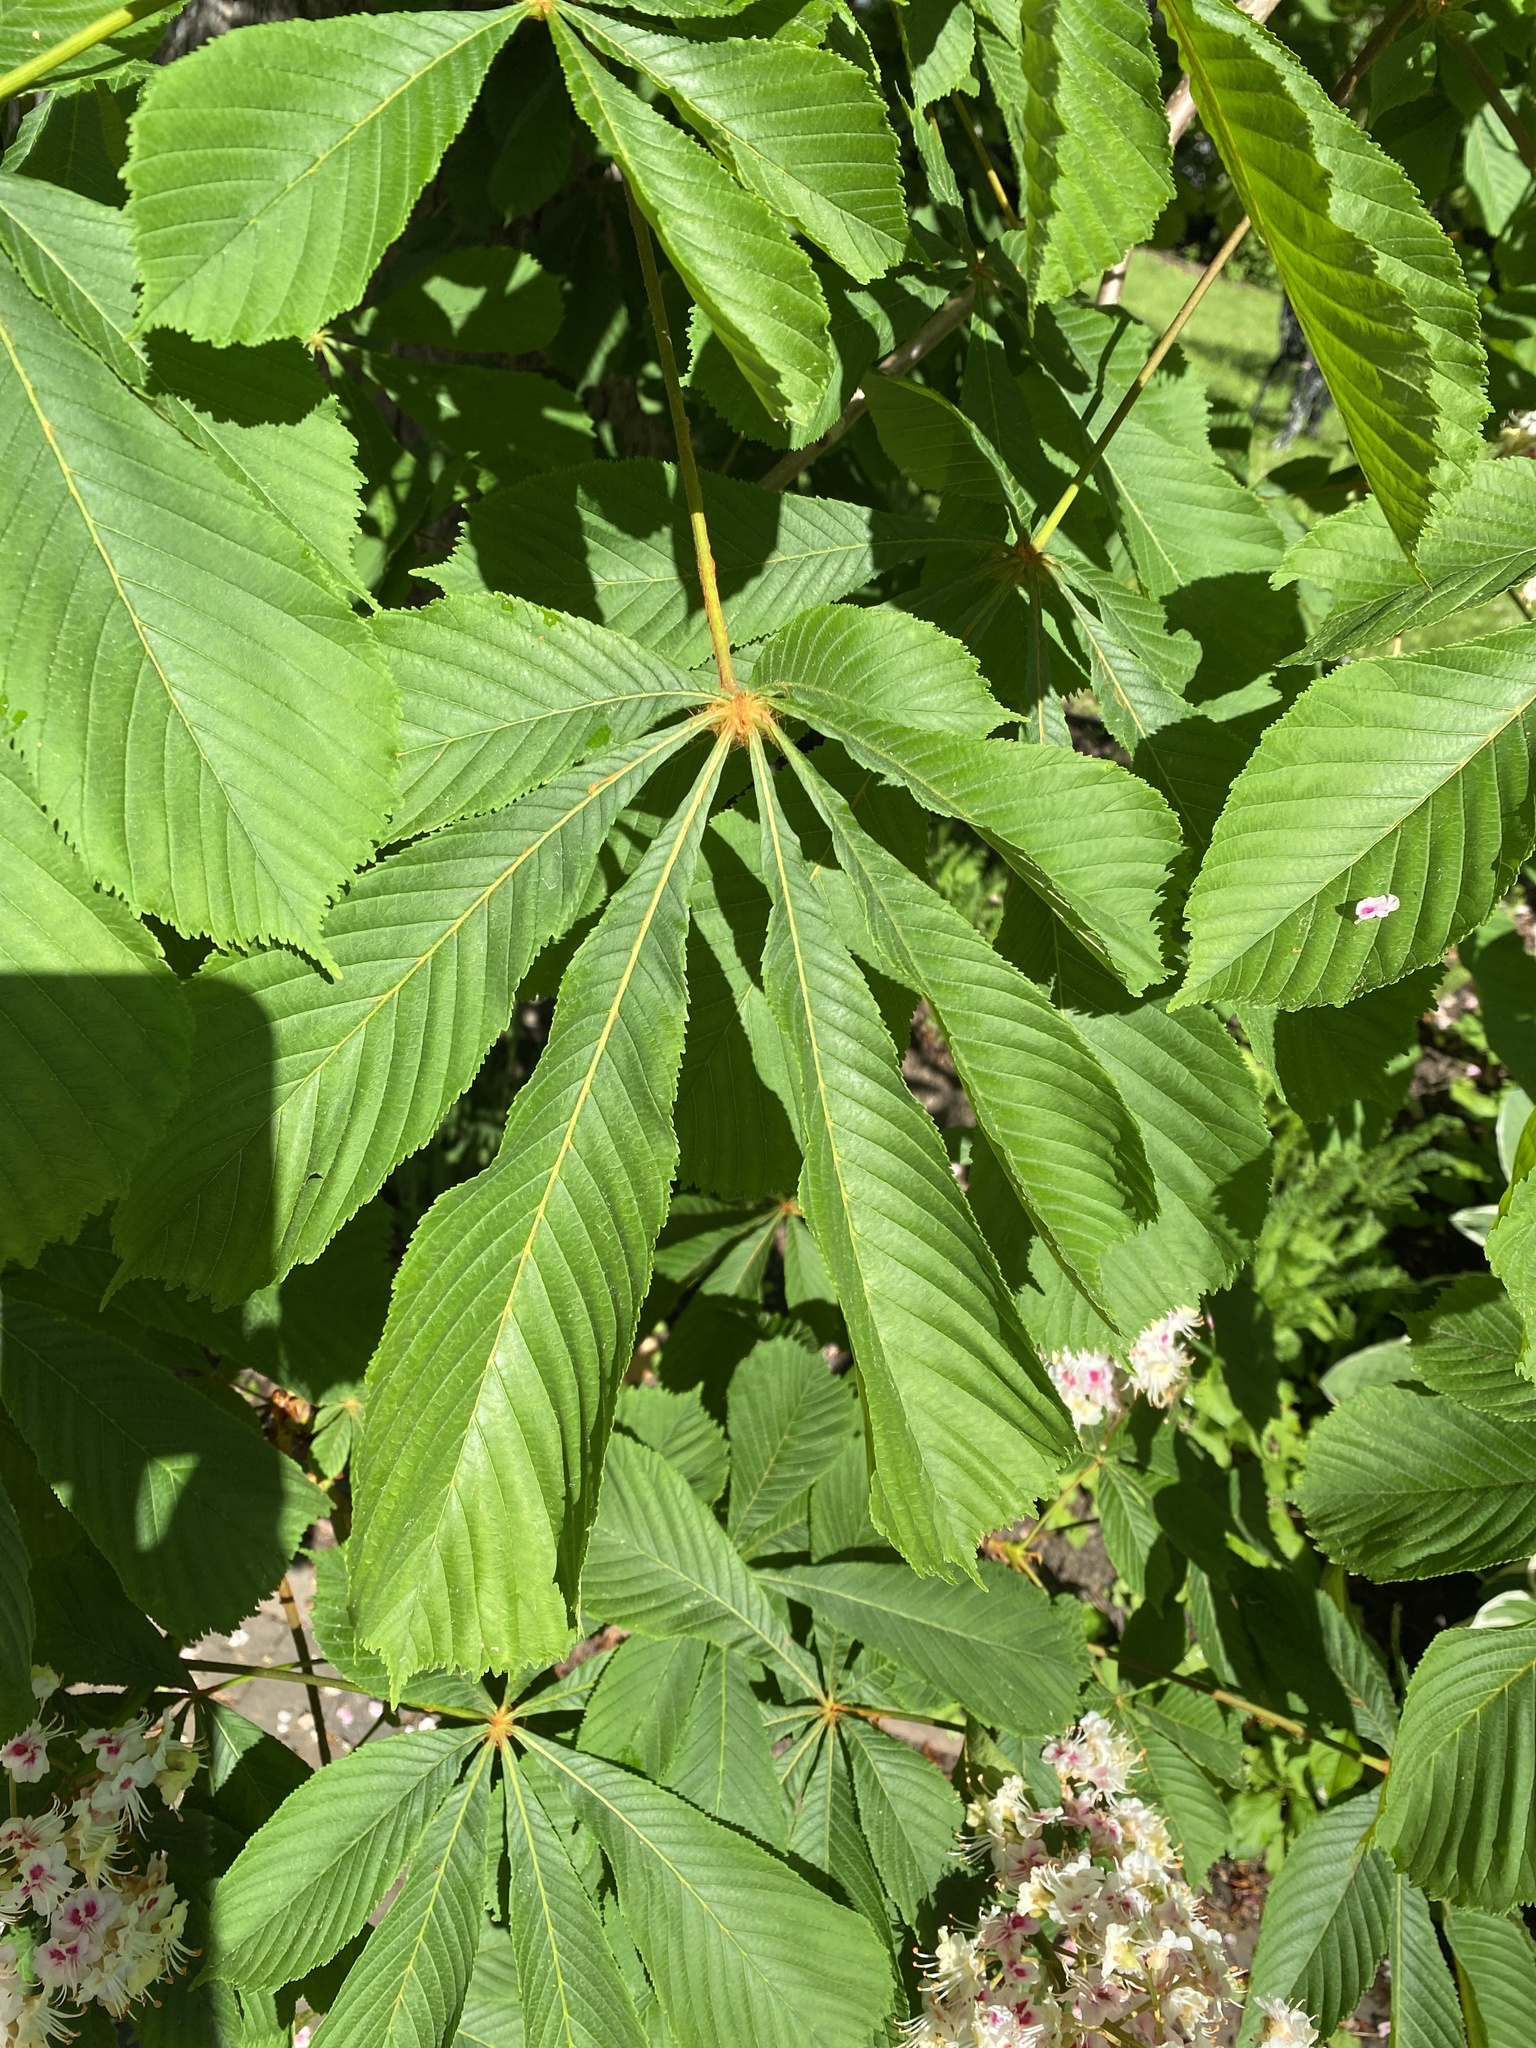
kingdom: Plantae
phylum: Tracheophyta
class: Magnoliopsida
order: Sapindales
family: Sapindaceae
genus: Aesculus
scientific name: Aesculus hippocastanum
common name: Horse-chestnut
